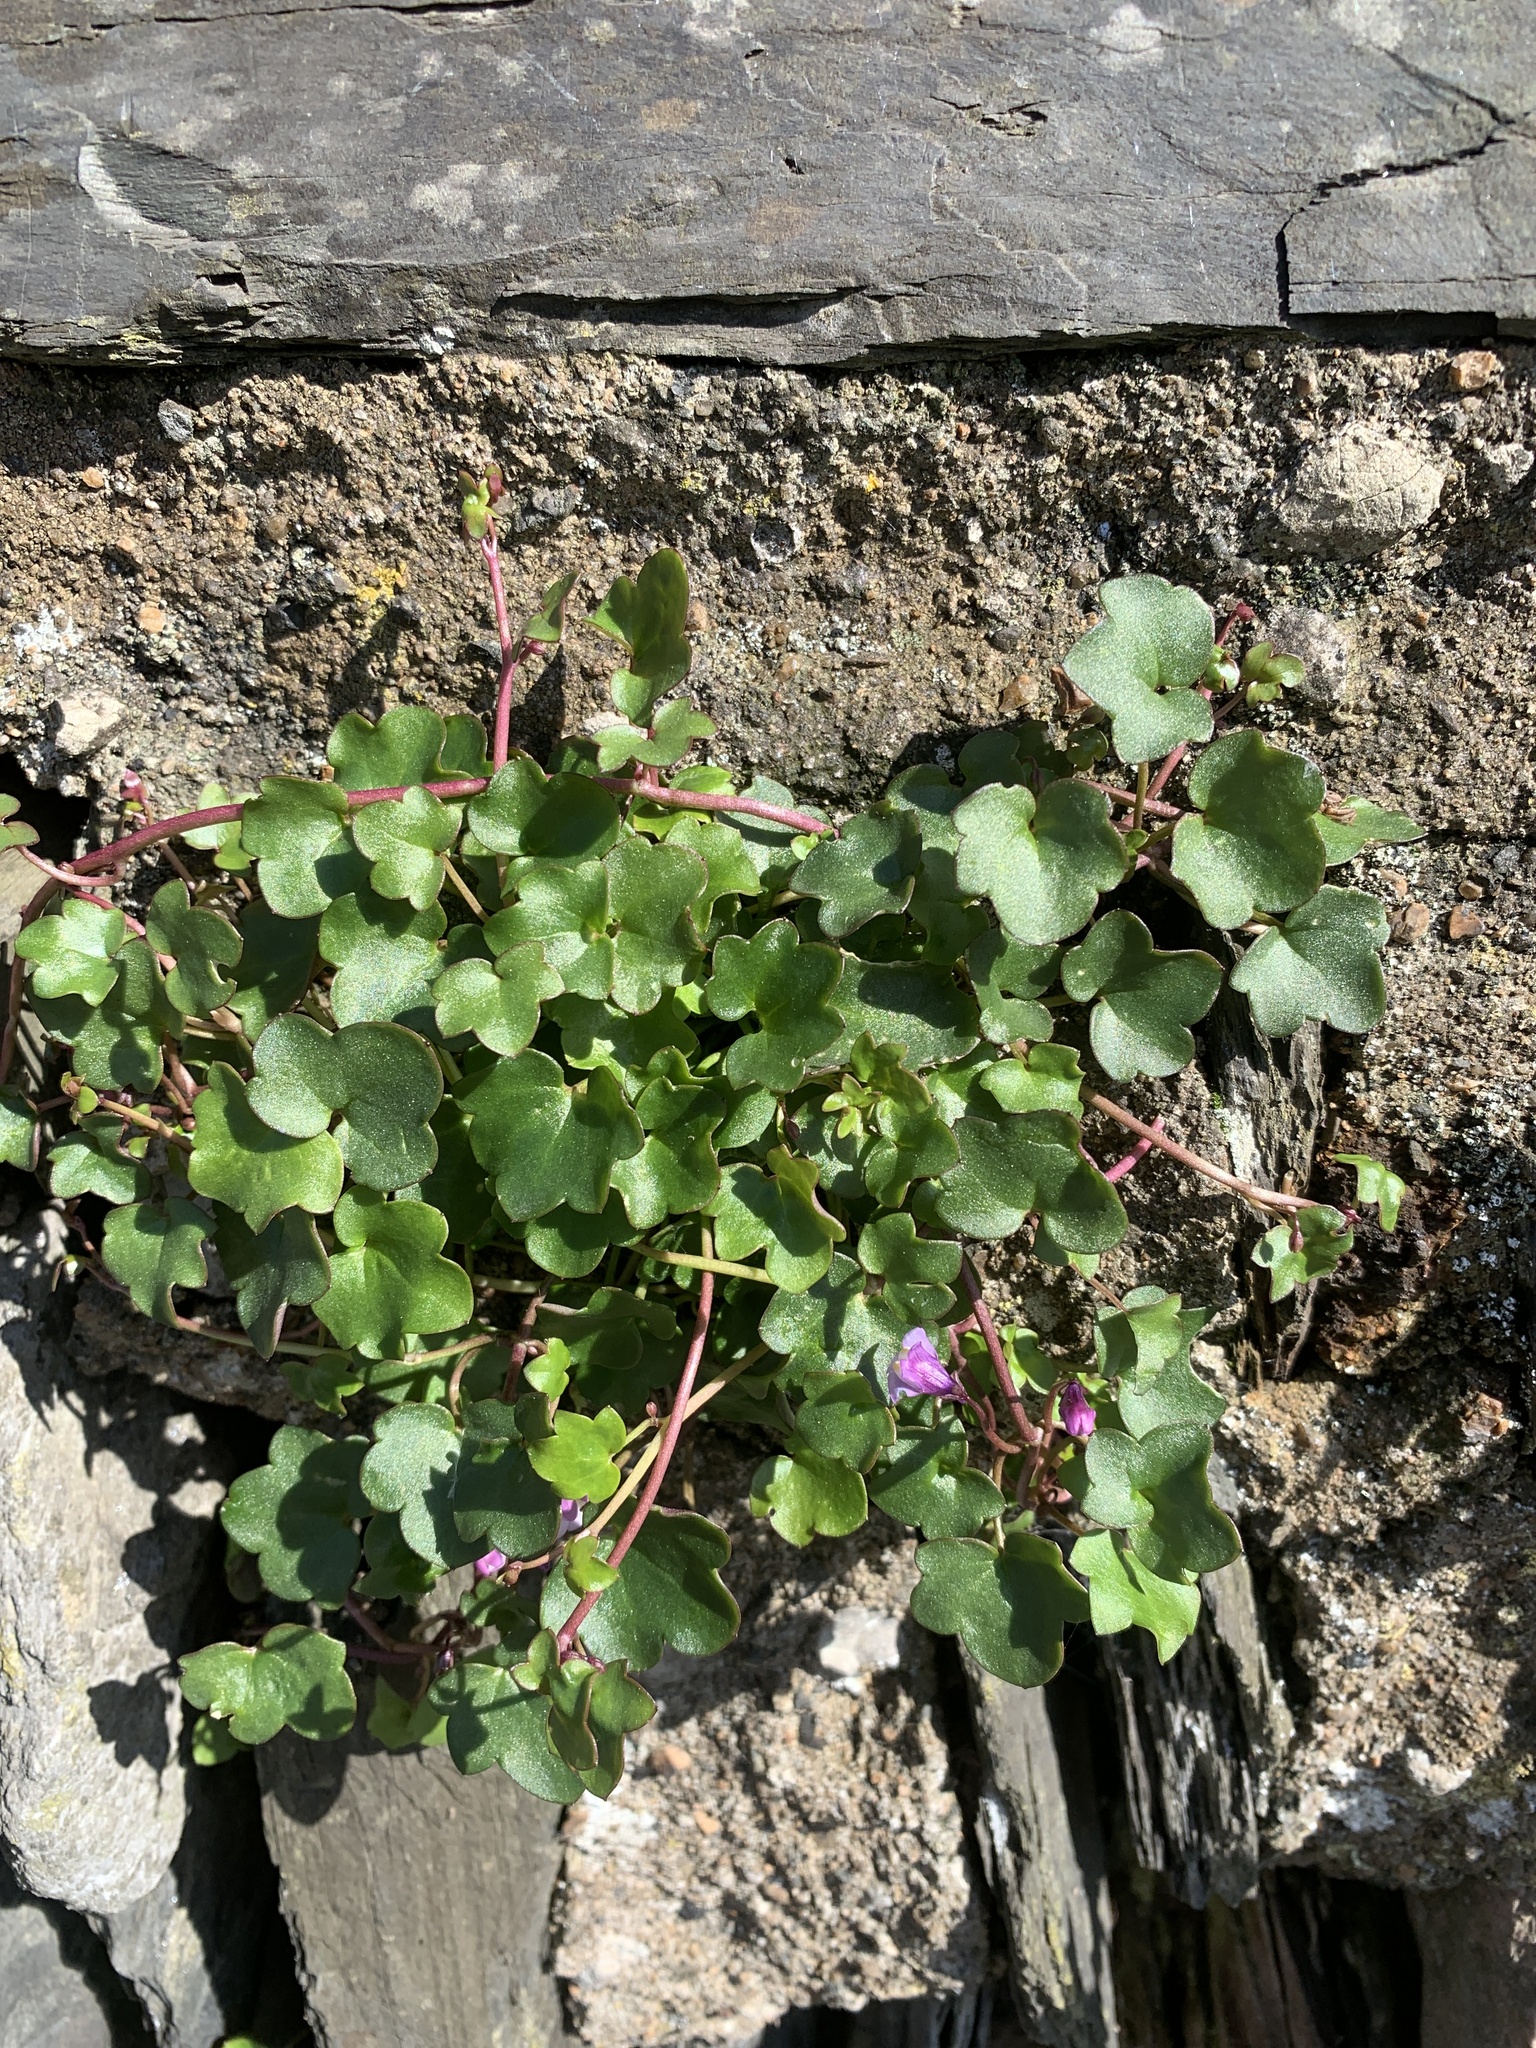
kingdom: Plantae
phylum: Tracheophyta
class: Magnoliopsida
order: Lamiales
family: Plantaginaceae
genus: Cymbalaria
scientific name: Cymbalaria muralis
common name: Ivy-leaved toadflax
